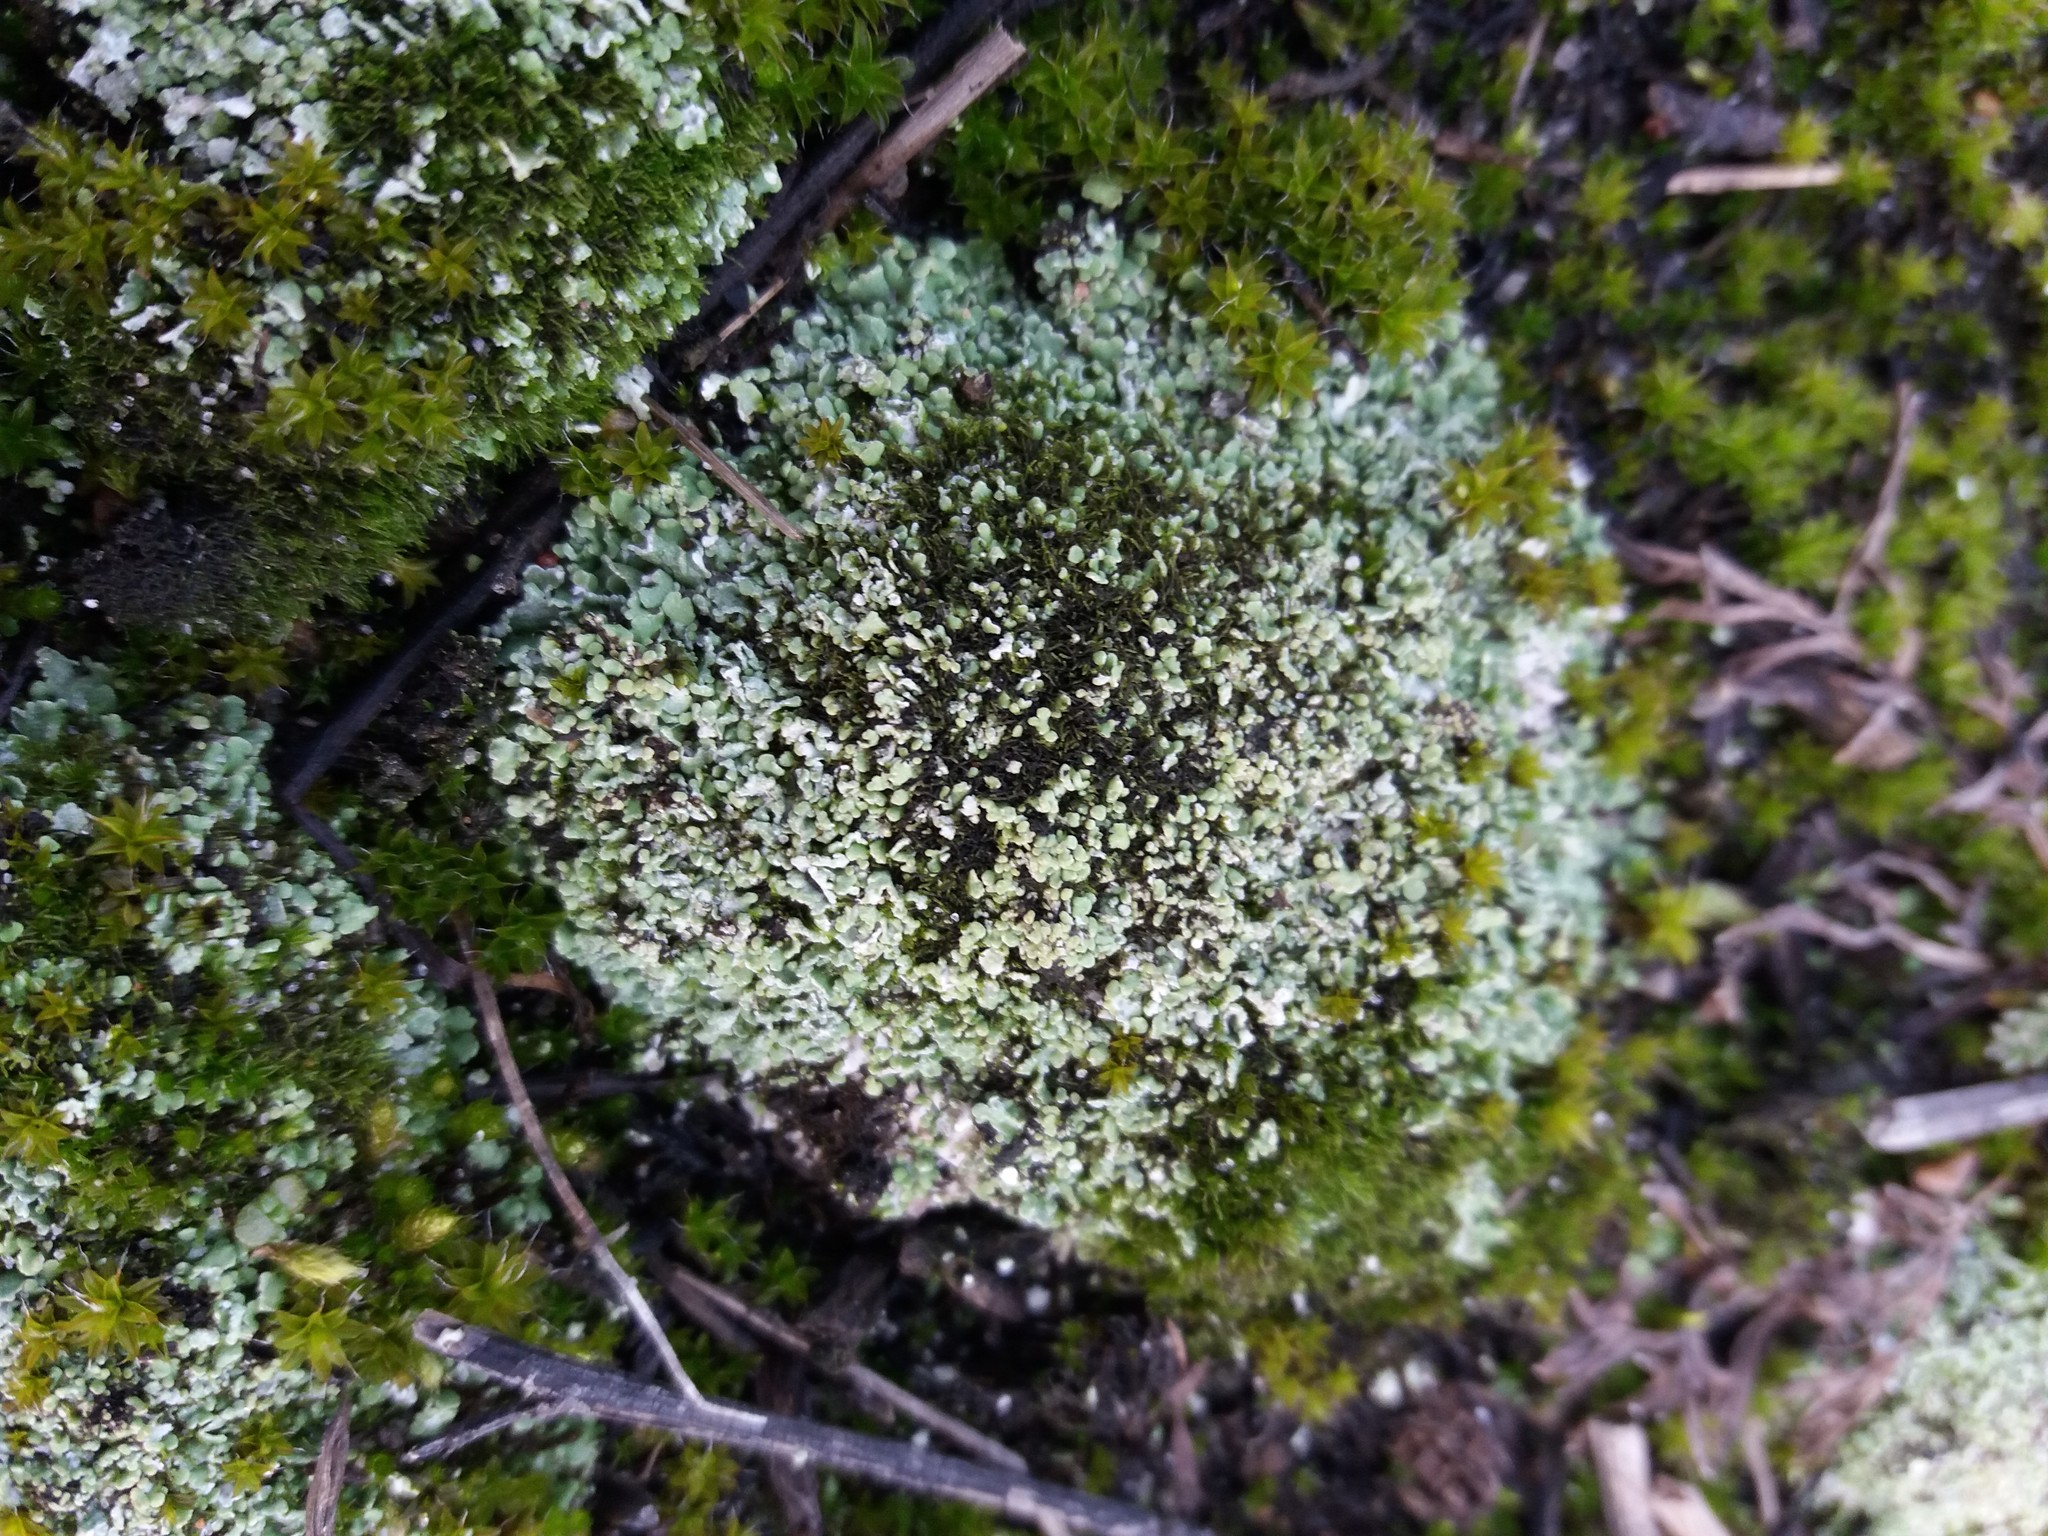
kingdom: Fungi
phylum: Ascomycota
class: Lecanoromycetes
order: Lecanorales
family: Cladoniaceae
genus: Cladonia
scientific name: Cladonia
